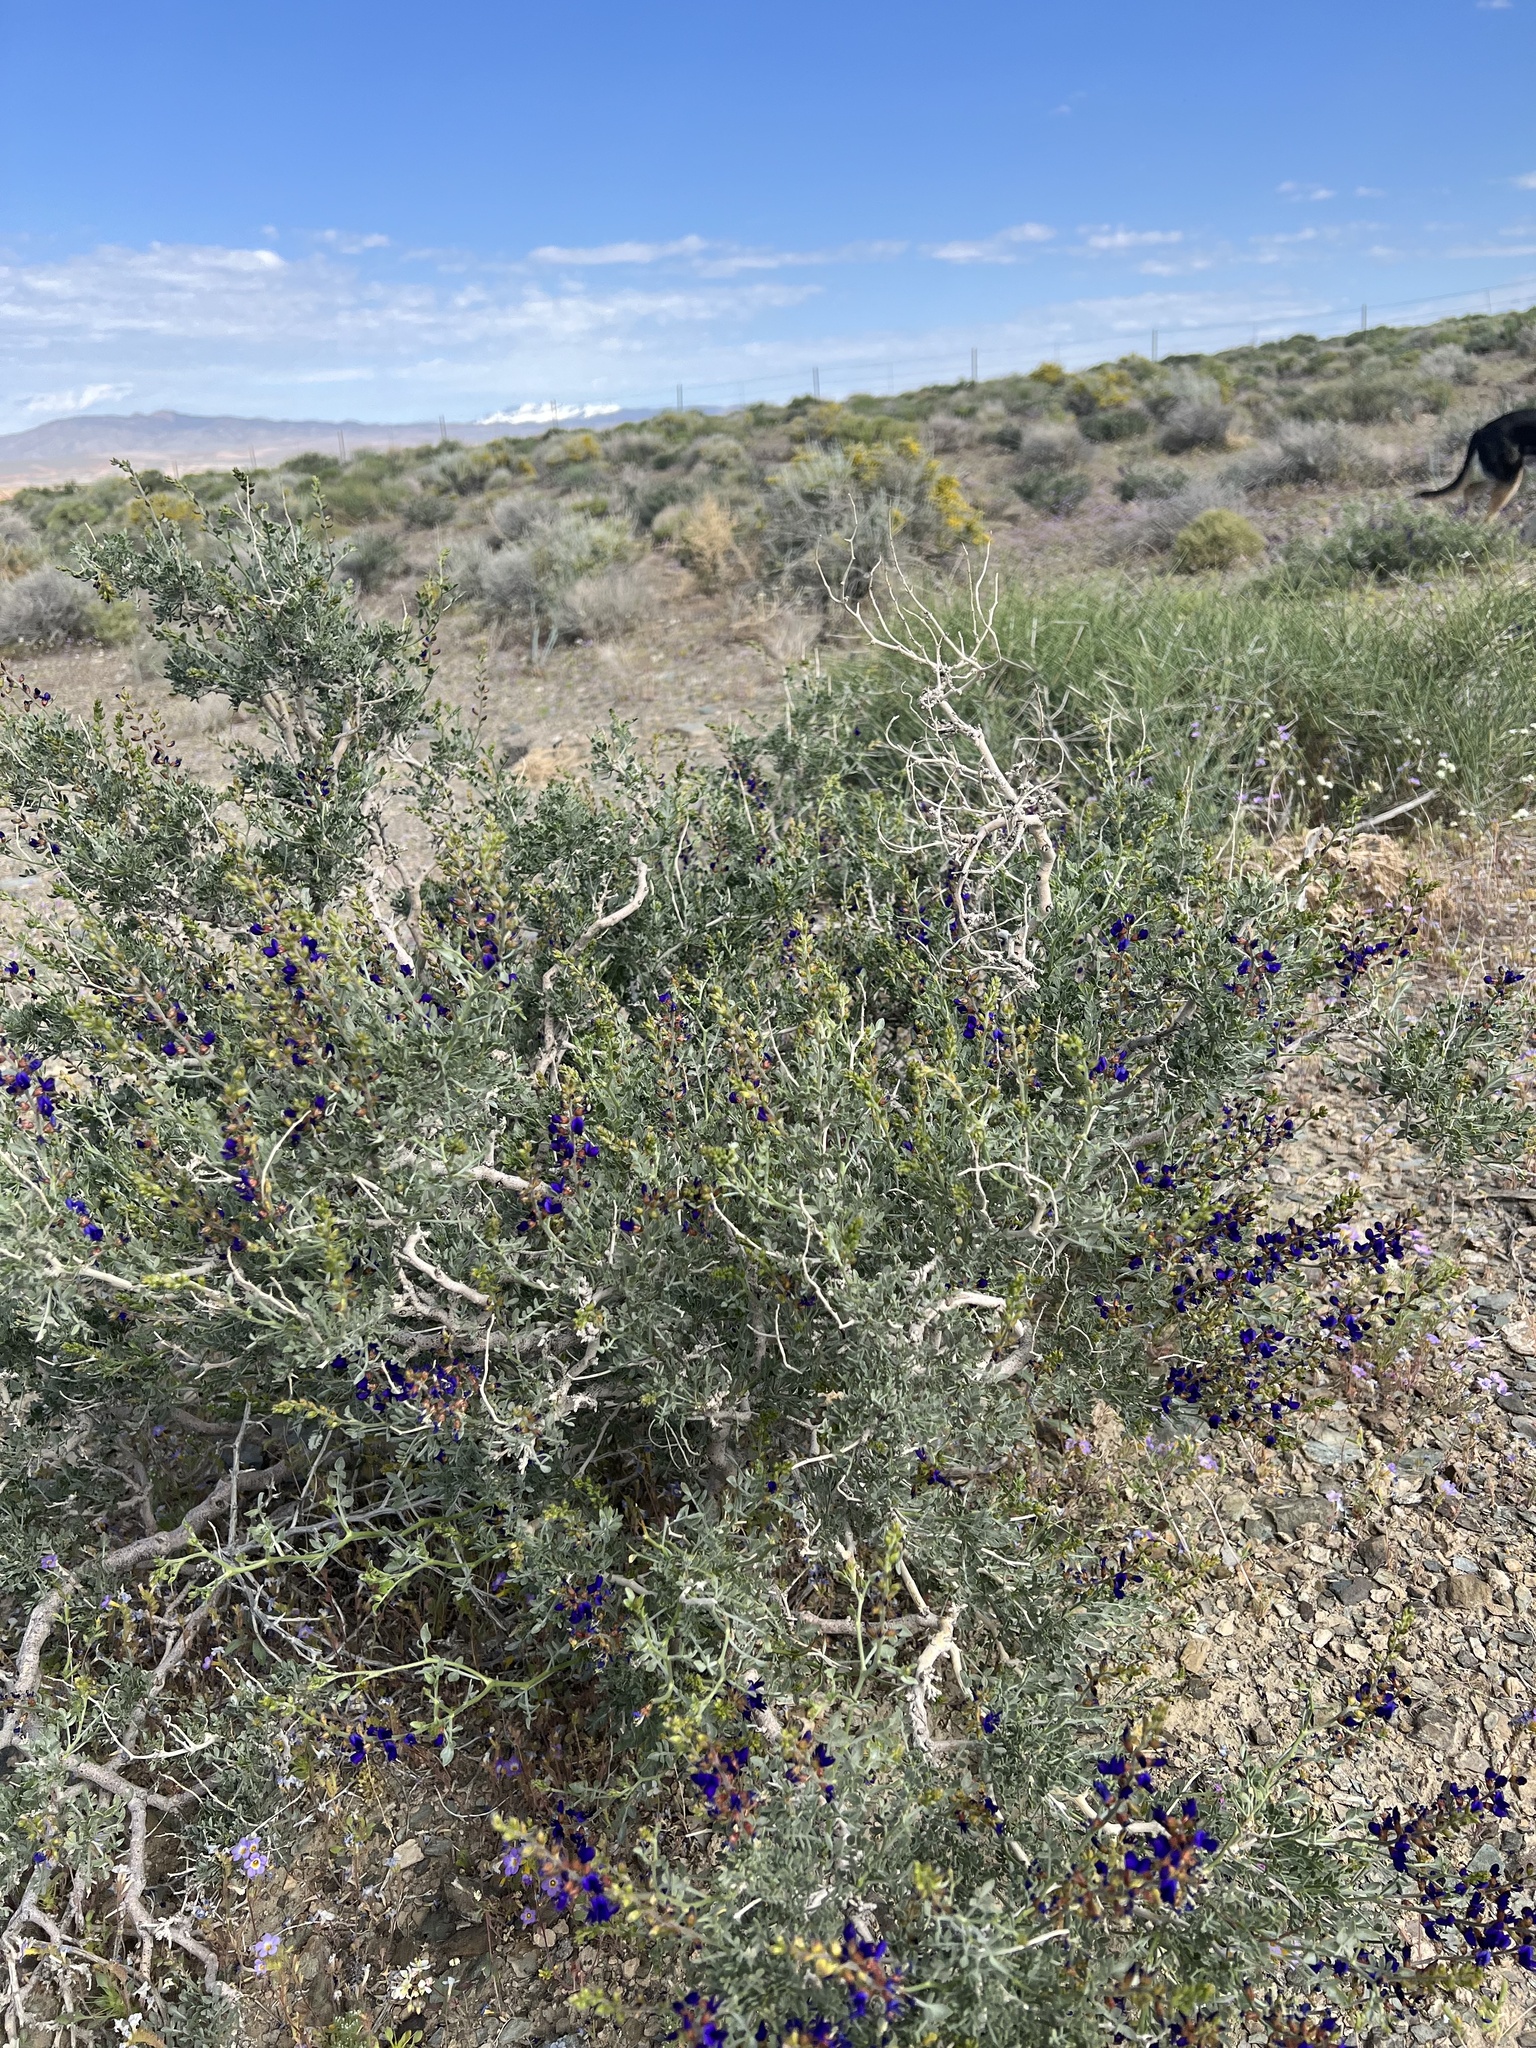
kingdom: Plantae
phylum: Tracheophyta
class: Magnoliopsida
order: Fabales
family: Fabaceae
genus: Psorothamnus
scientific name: Psorothamnus arborescens
